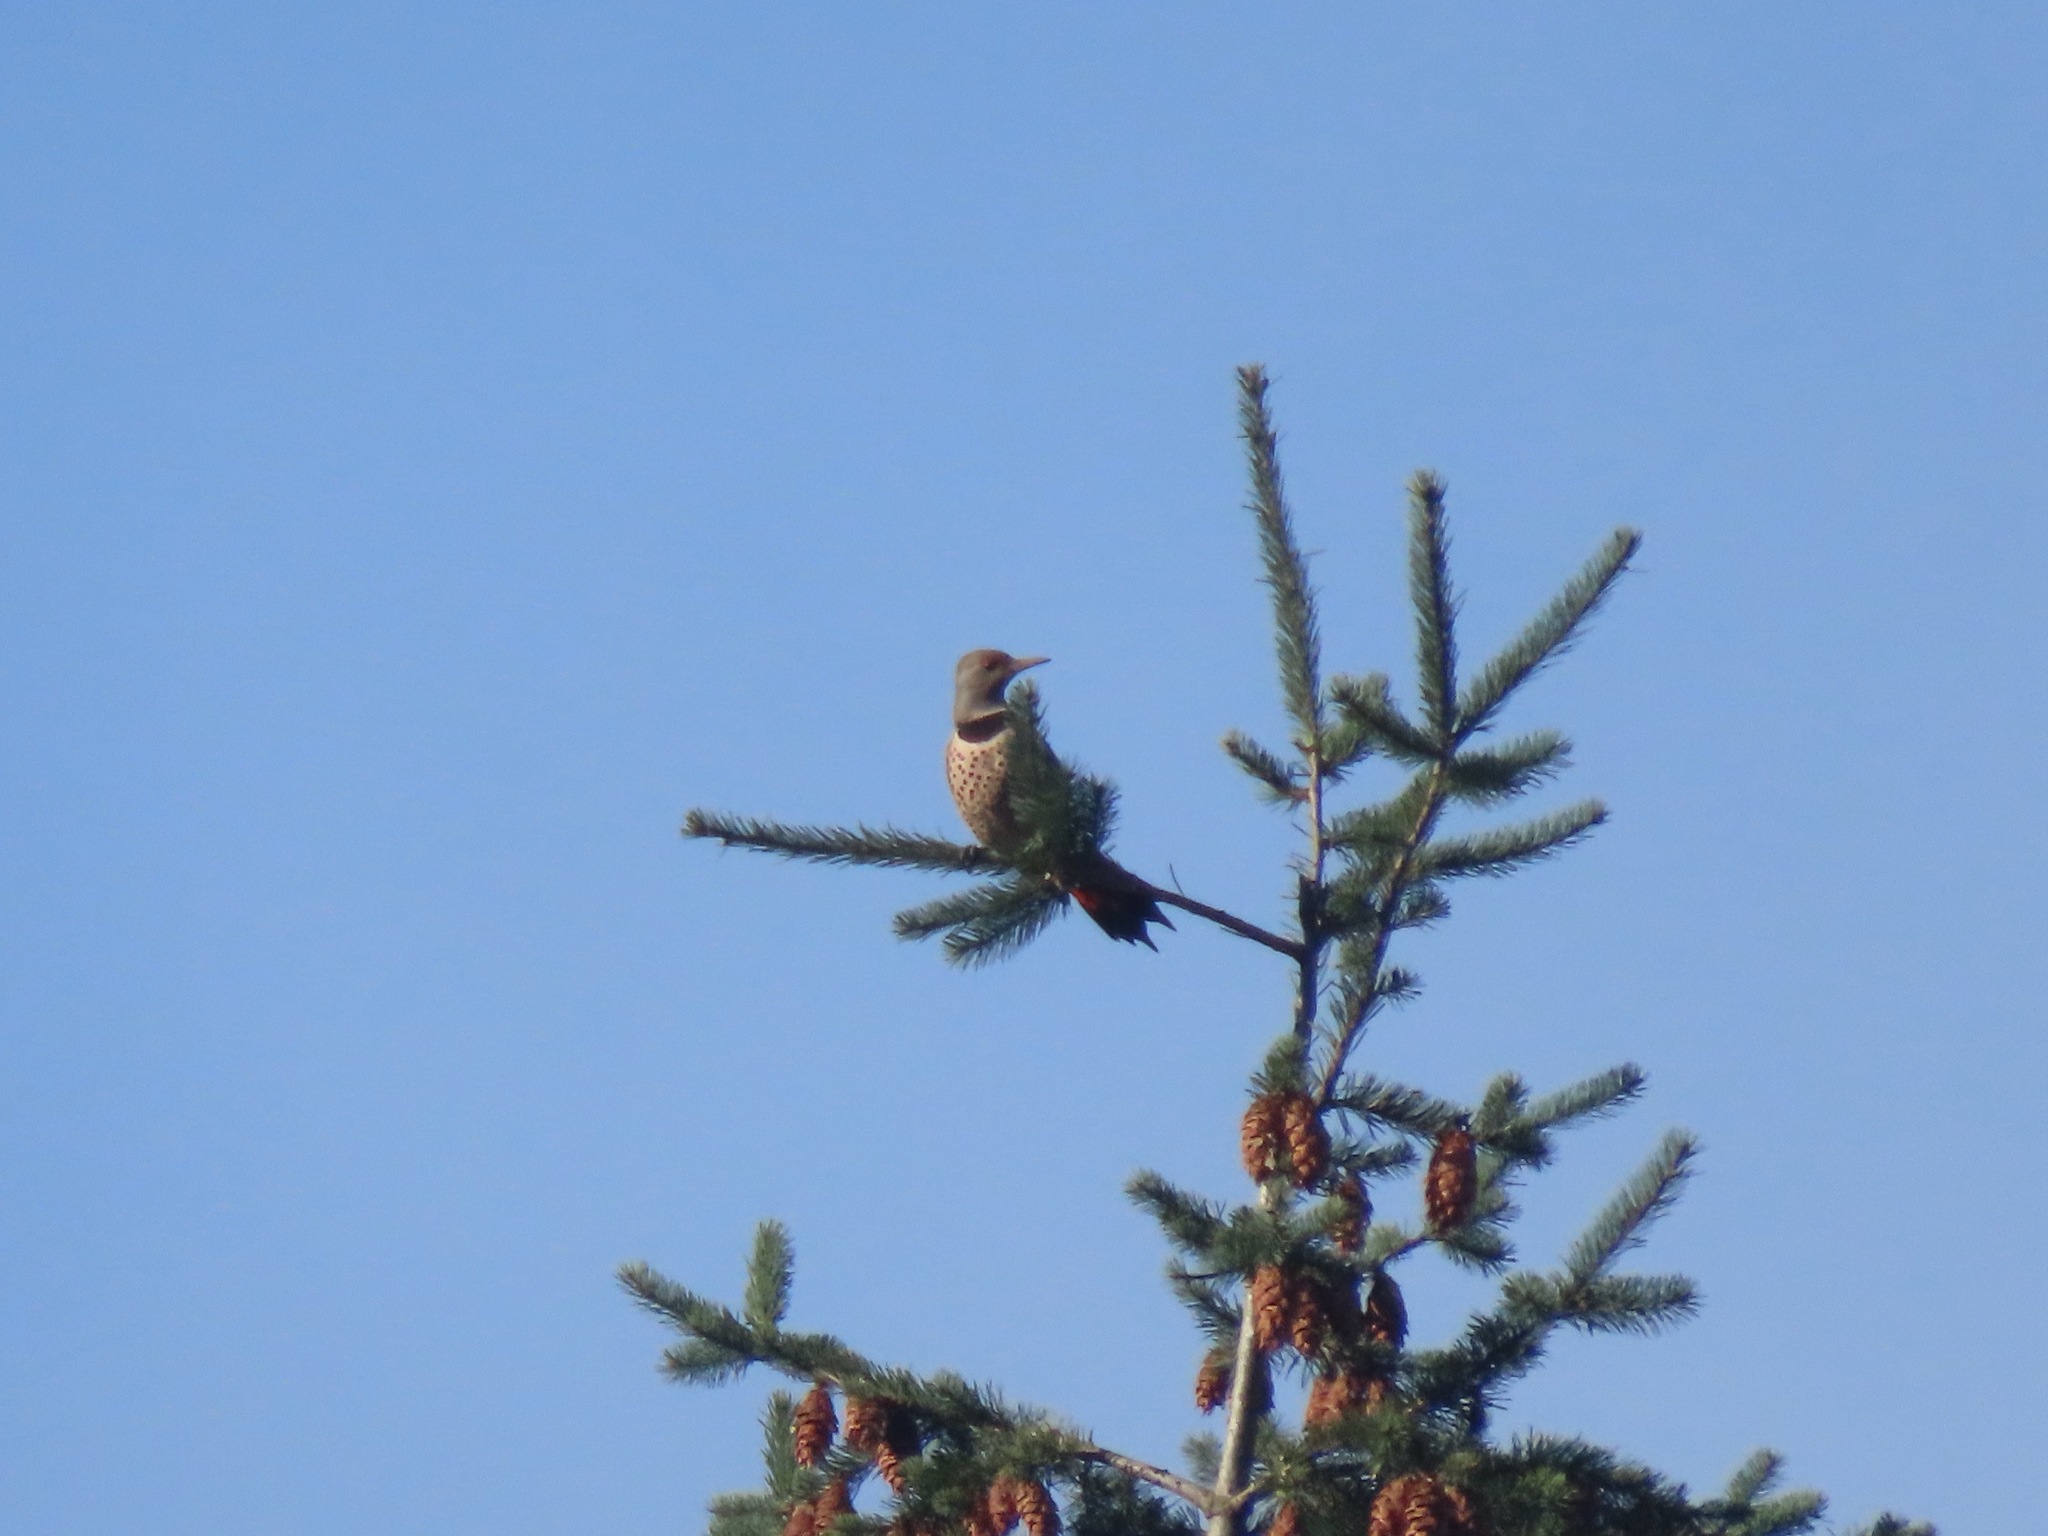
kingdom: Animalia
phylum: Chordata
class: Aves
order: Piciformes
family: Picidae
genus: Colaptes
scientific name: Colaptes auratus
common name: Northern flicker
